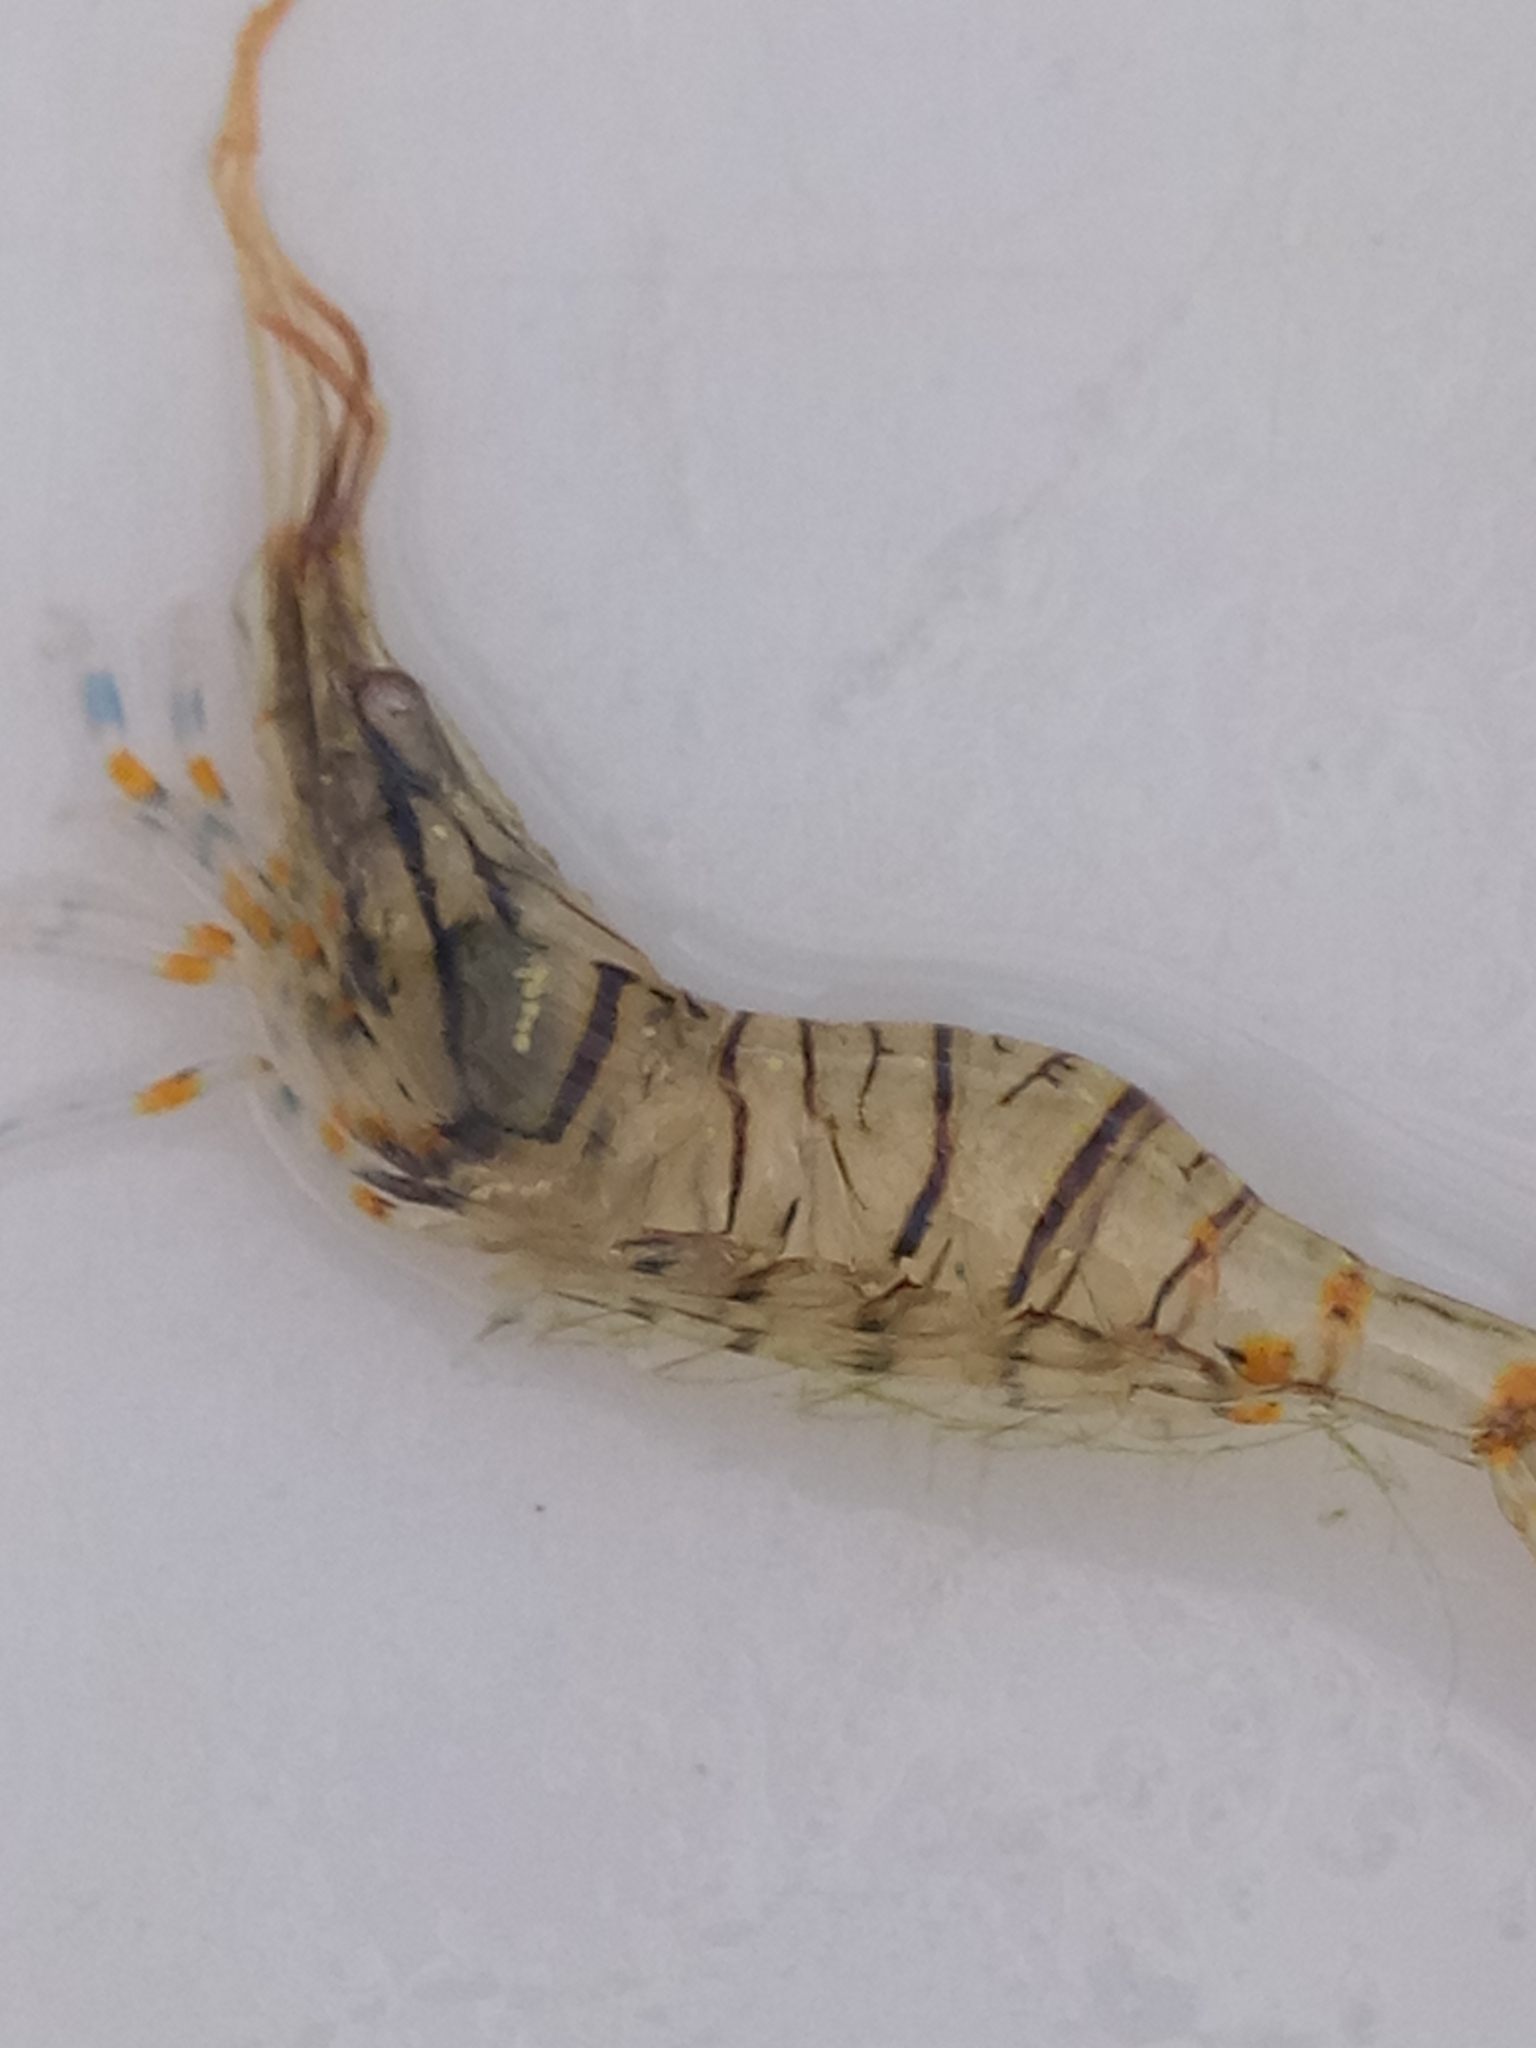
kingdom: Animalia
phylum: Arthropoda
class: Malacostraca
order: Decapoda
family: Palaemonidae
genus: Palaemon
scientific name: Palaemon elegans
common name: Grass prawm
